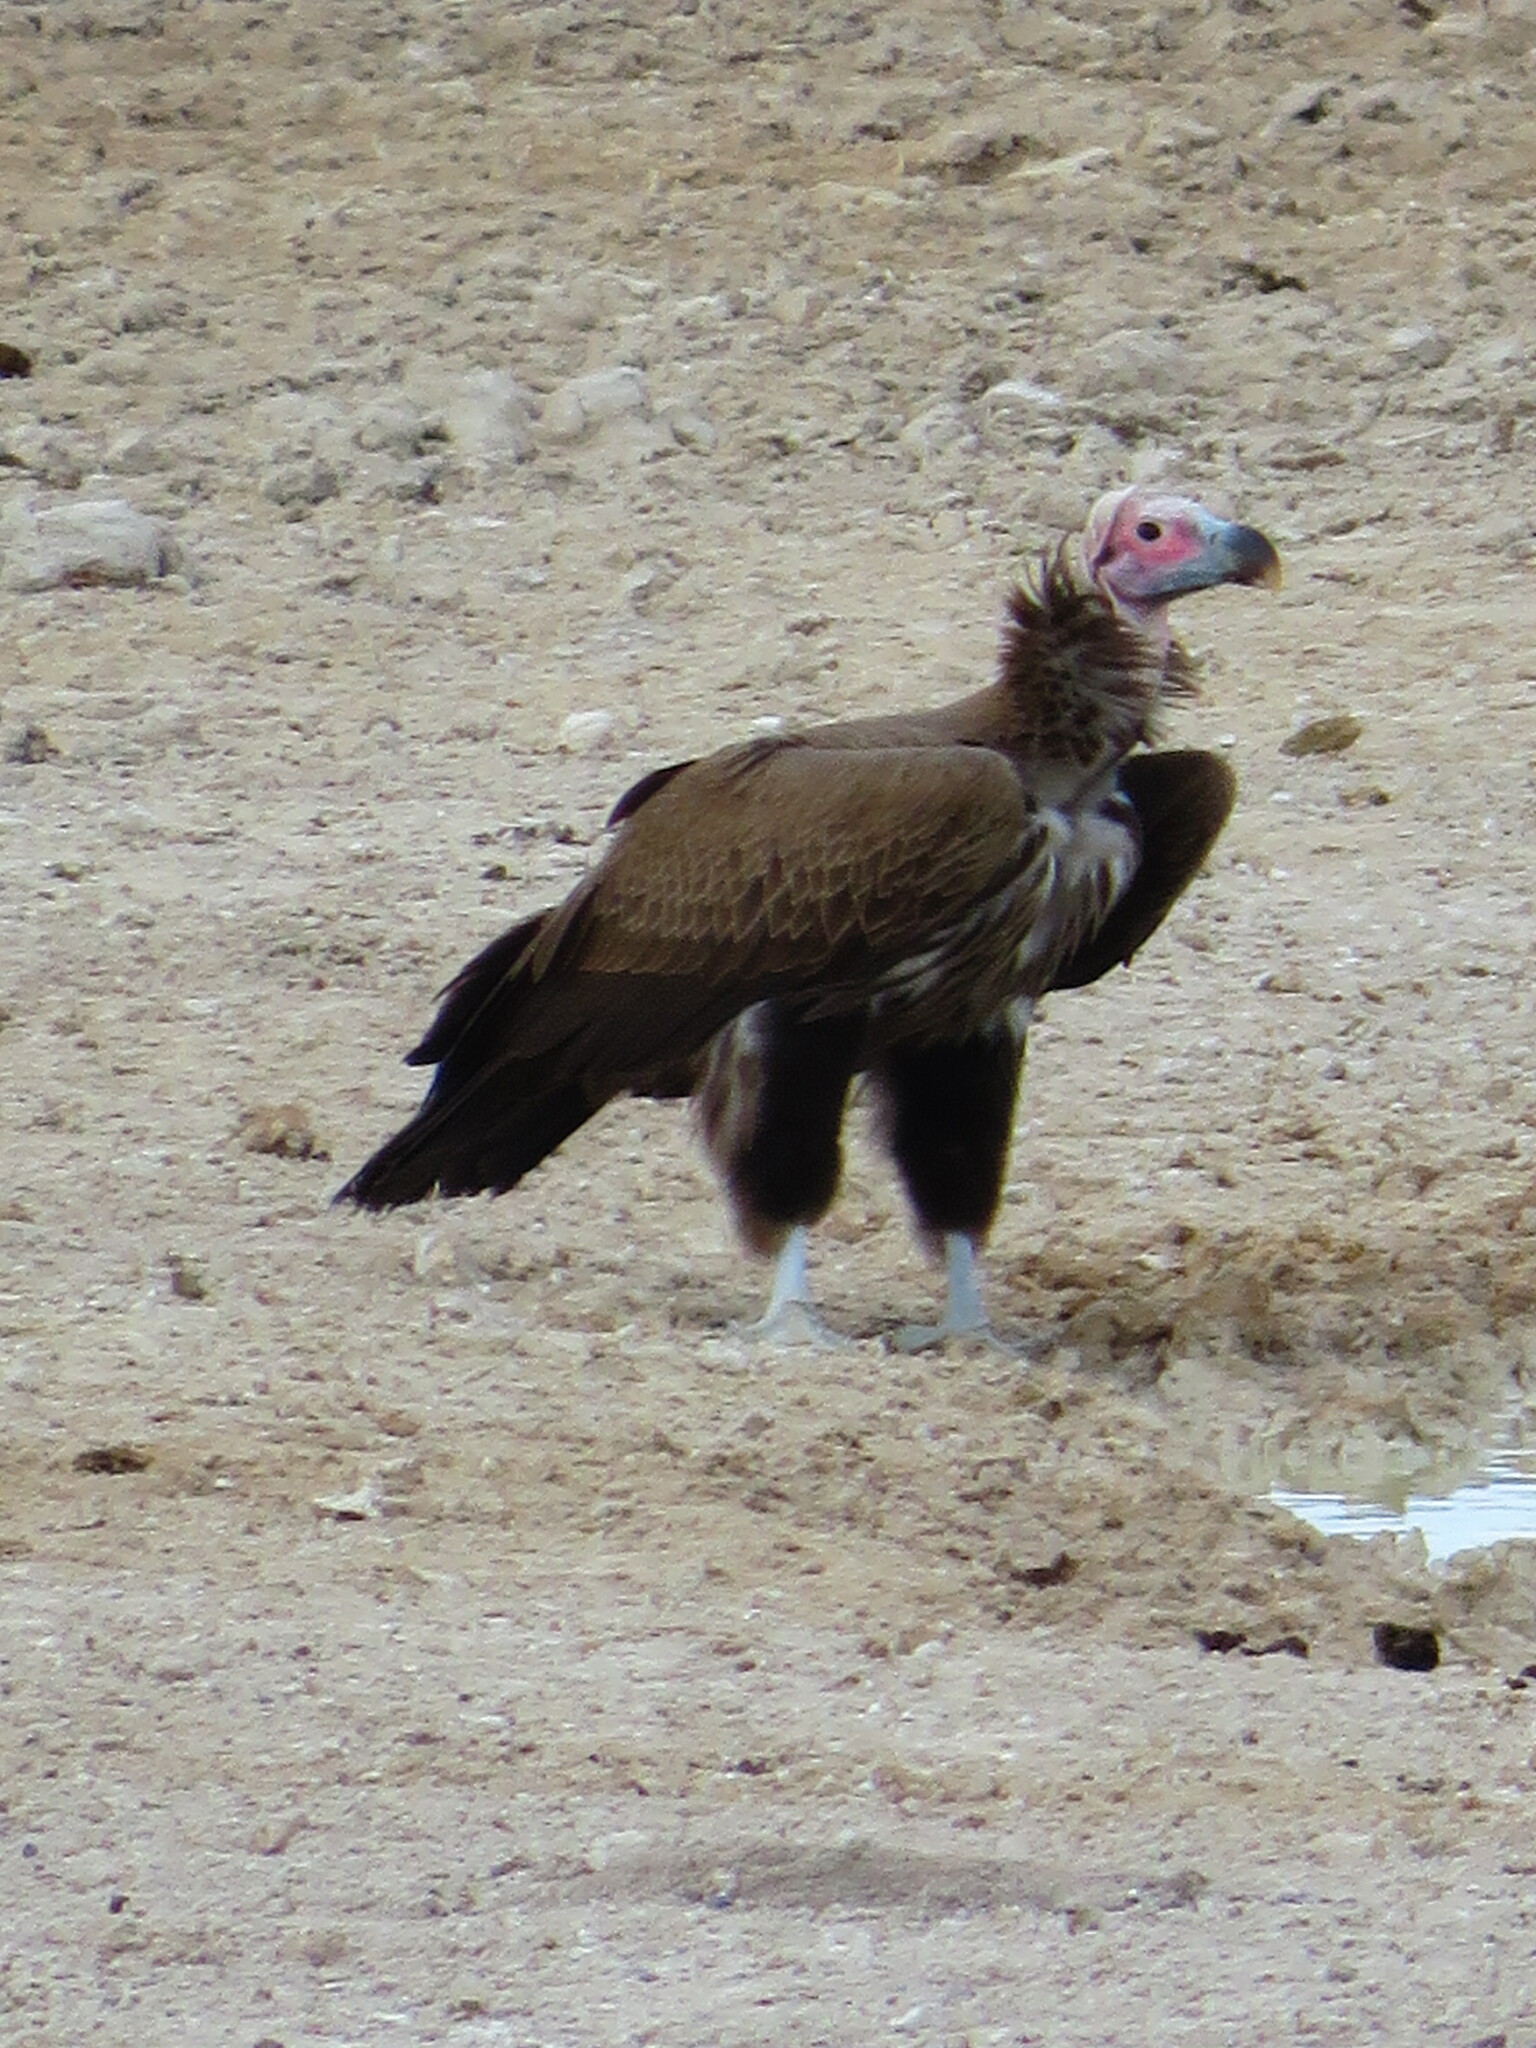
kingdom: Animalia
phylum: Chordata
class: Aves
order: Accipitriformes
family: Accipitridae
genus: Torgos
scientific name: Torgos tracheliotos
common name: Lappet-faced vulture
